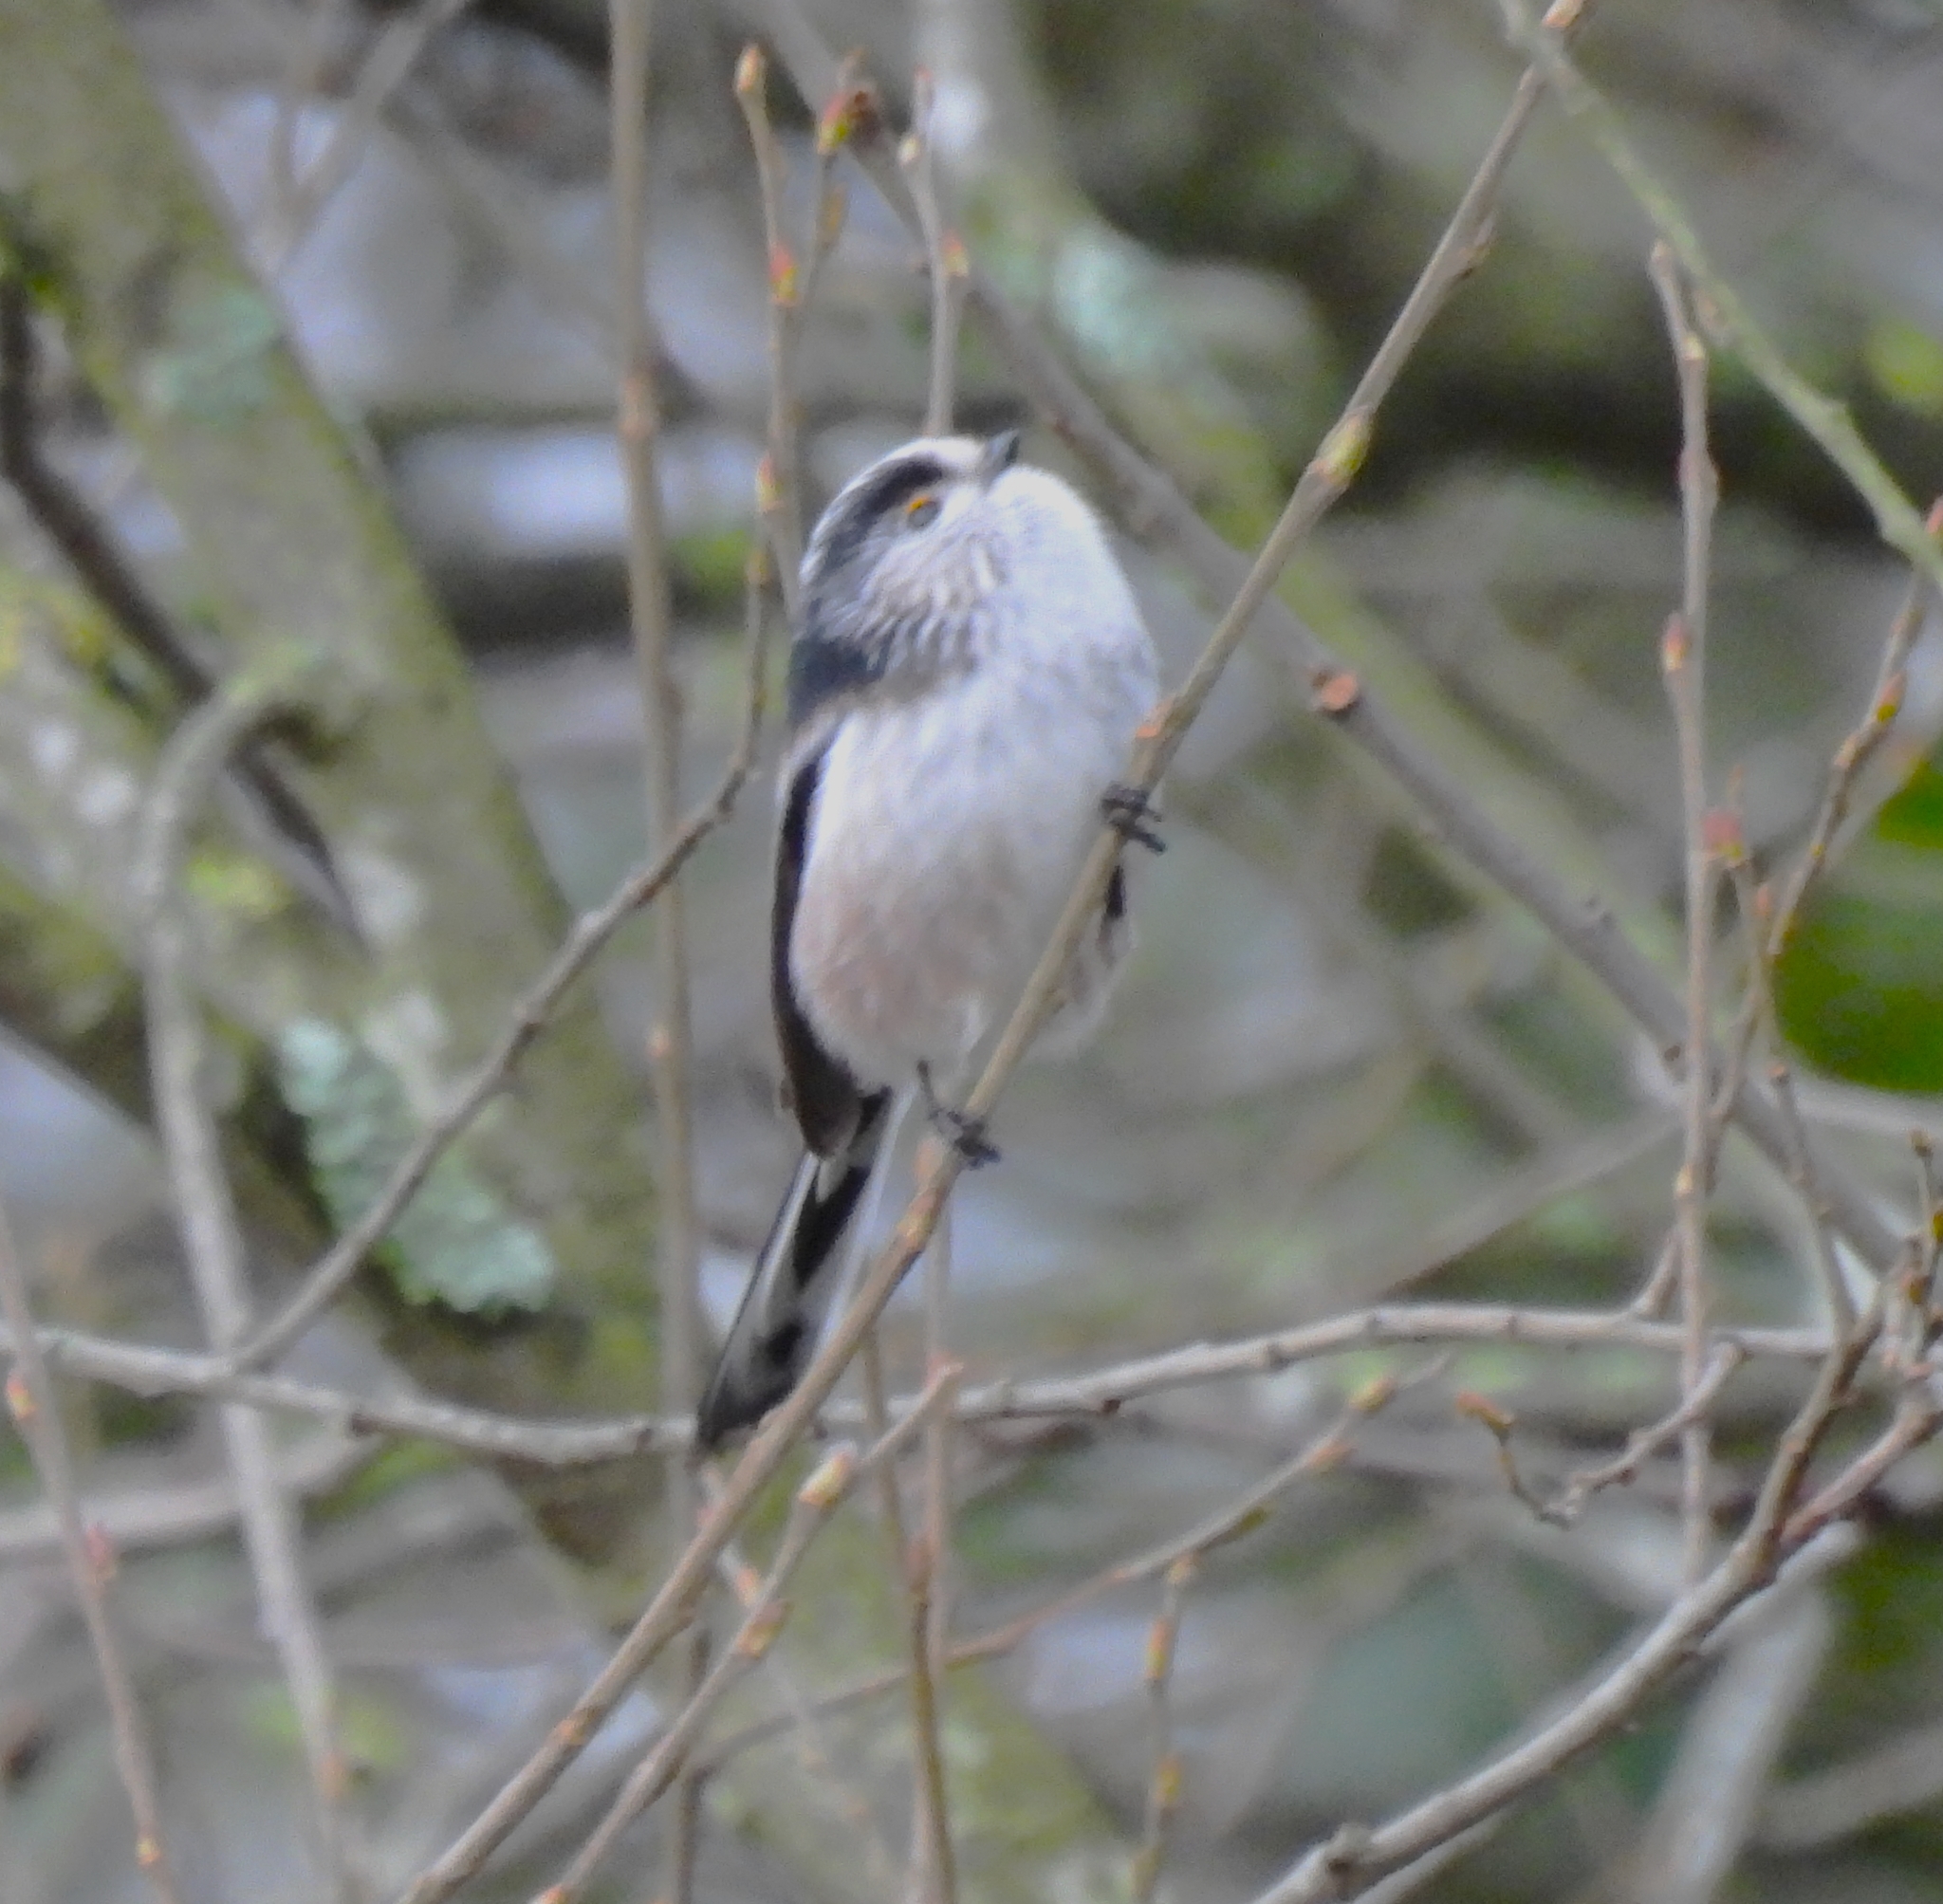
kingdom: Animalia
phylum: Chordata
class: Aves
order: Passeriformes
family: Aegithalidae
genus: Aegithalos
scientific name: Aegithalos caudatus
